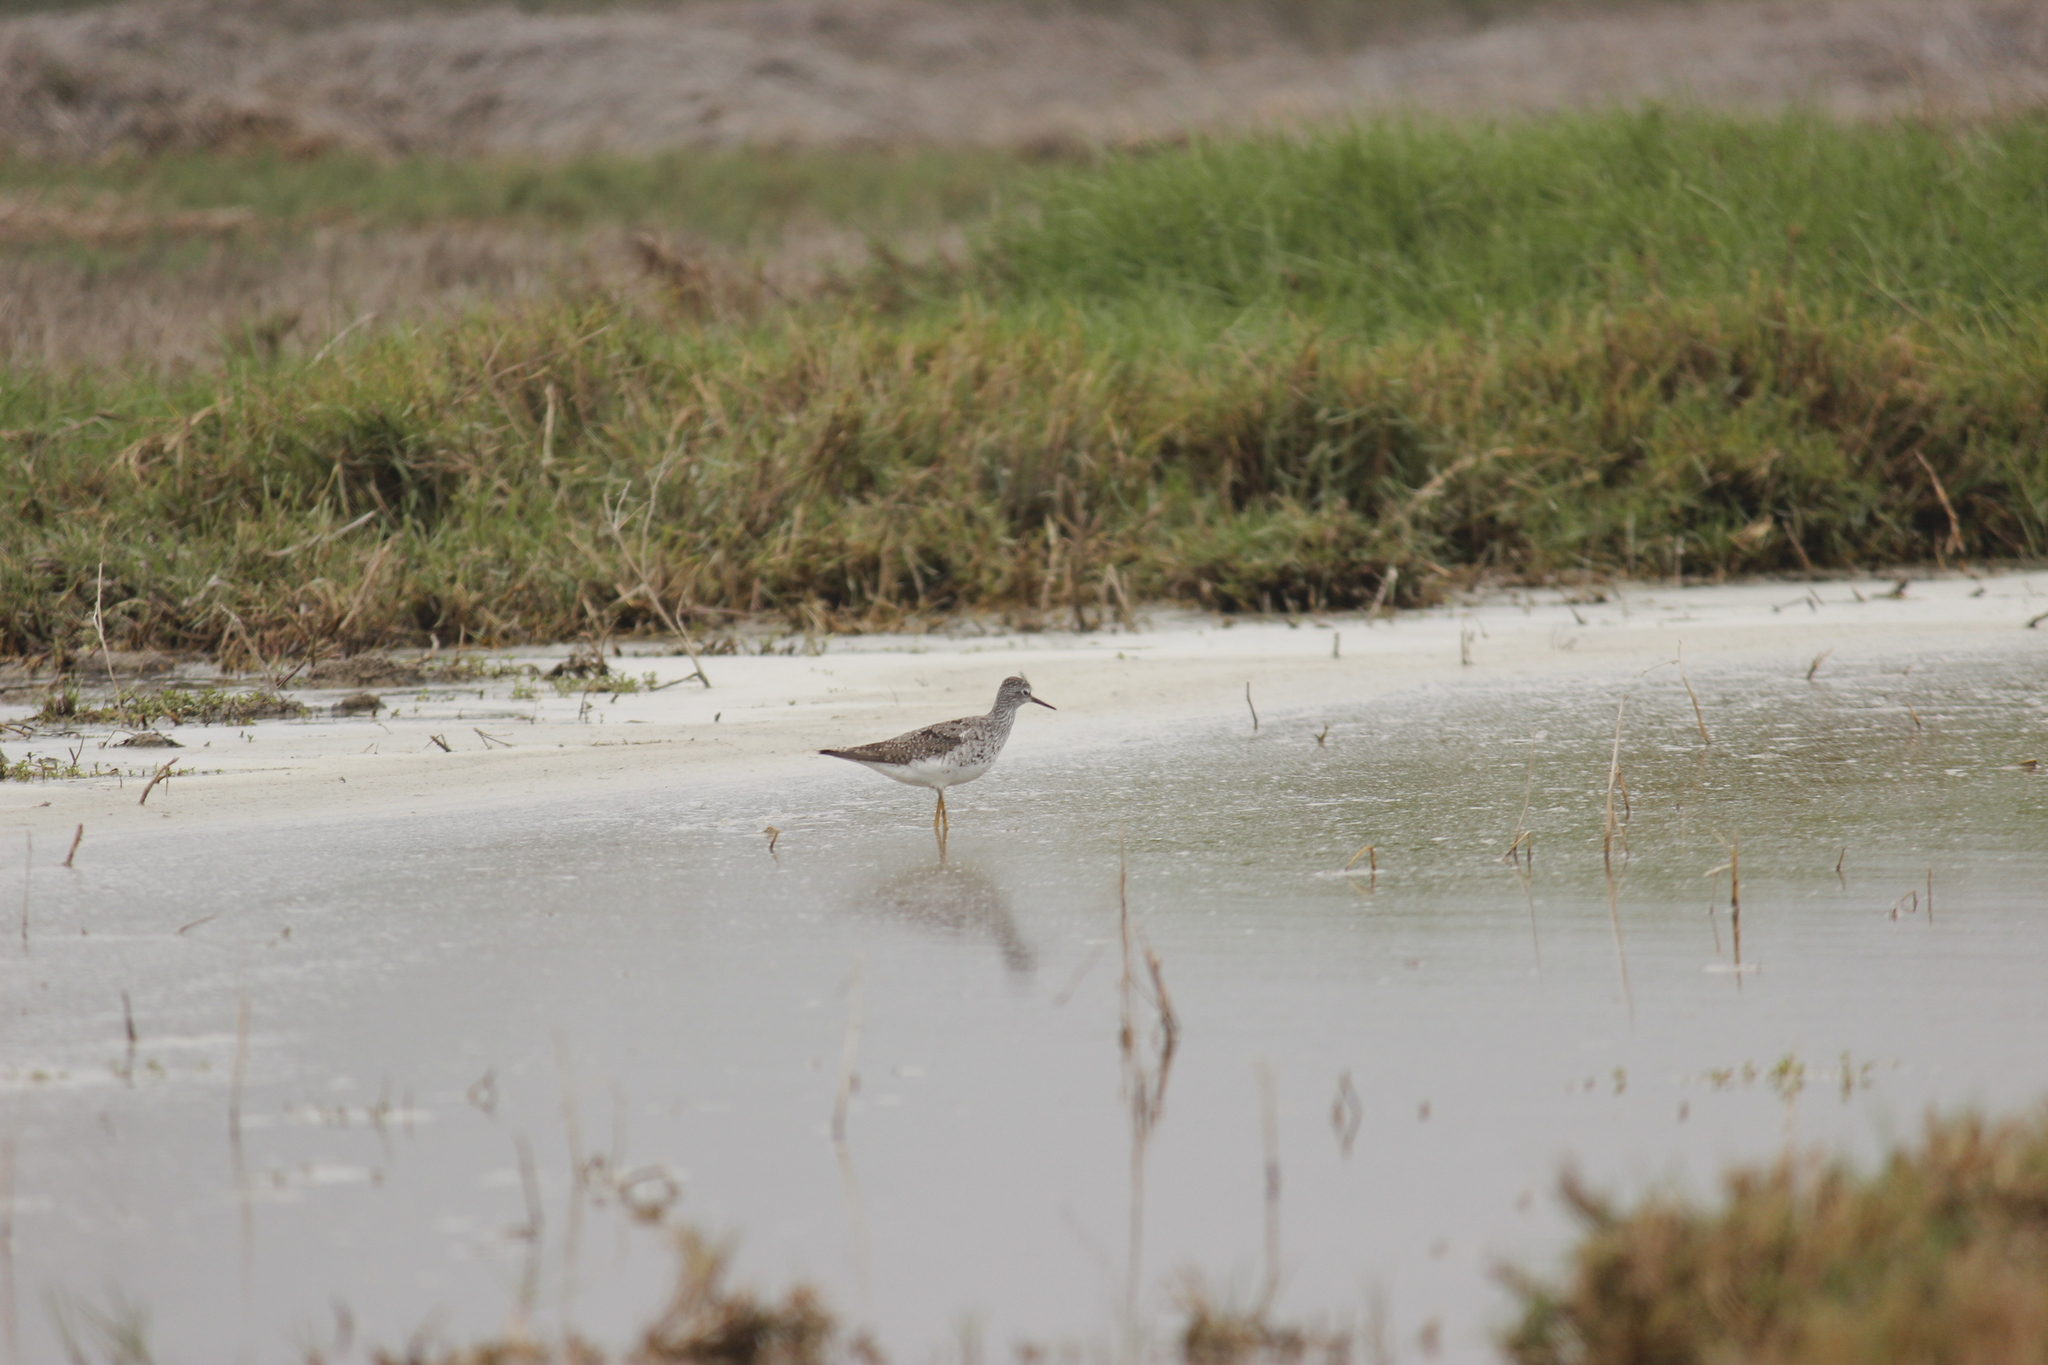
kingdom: Animalia
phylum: Chordata
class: Aves
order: Charadriiformes
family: Scolopacidae
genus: Tringa
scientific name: Tringa flavipes
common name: Lesser yellowlegs
